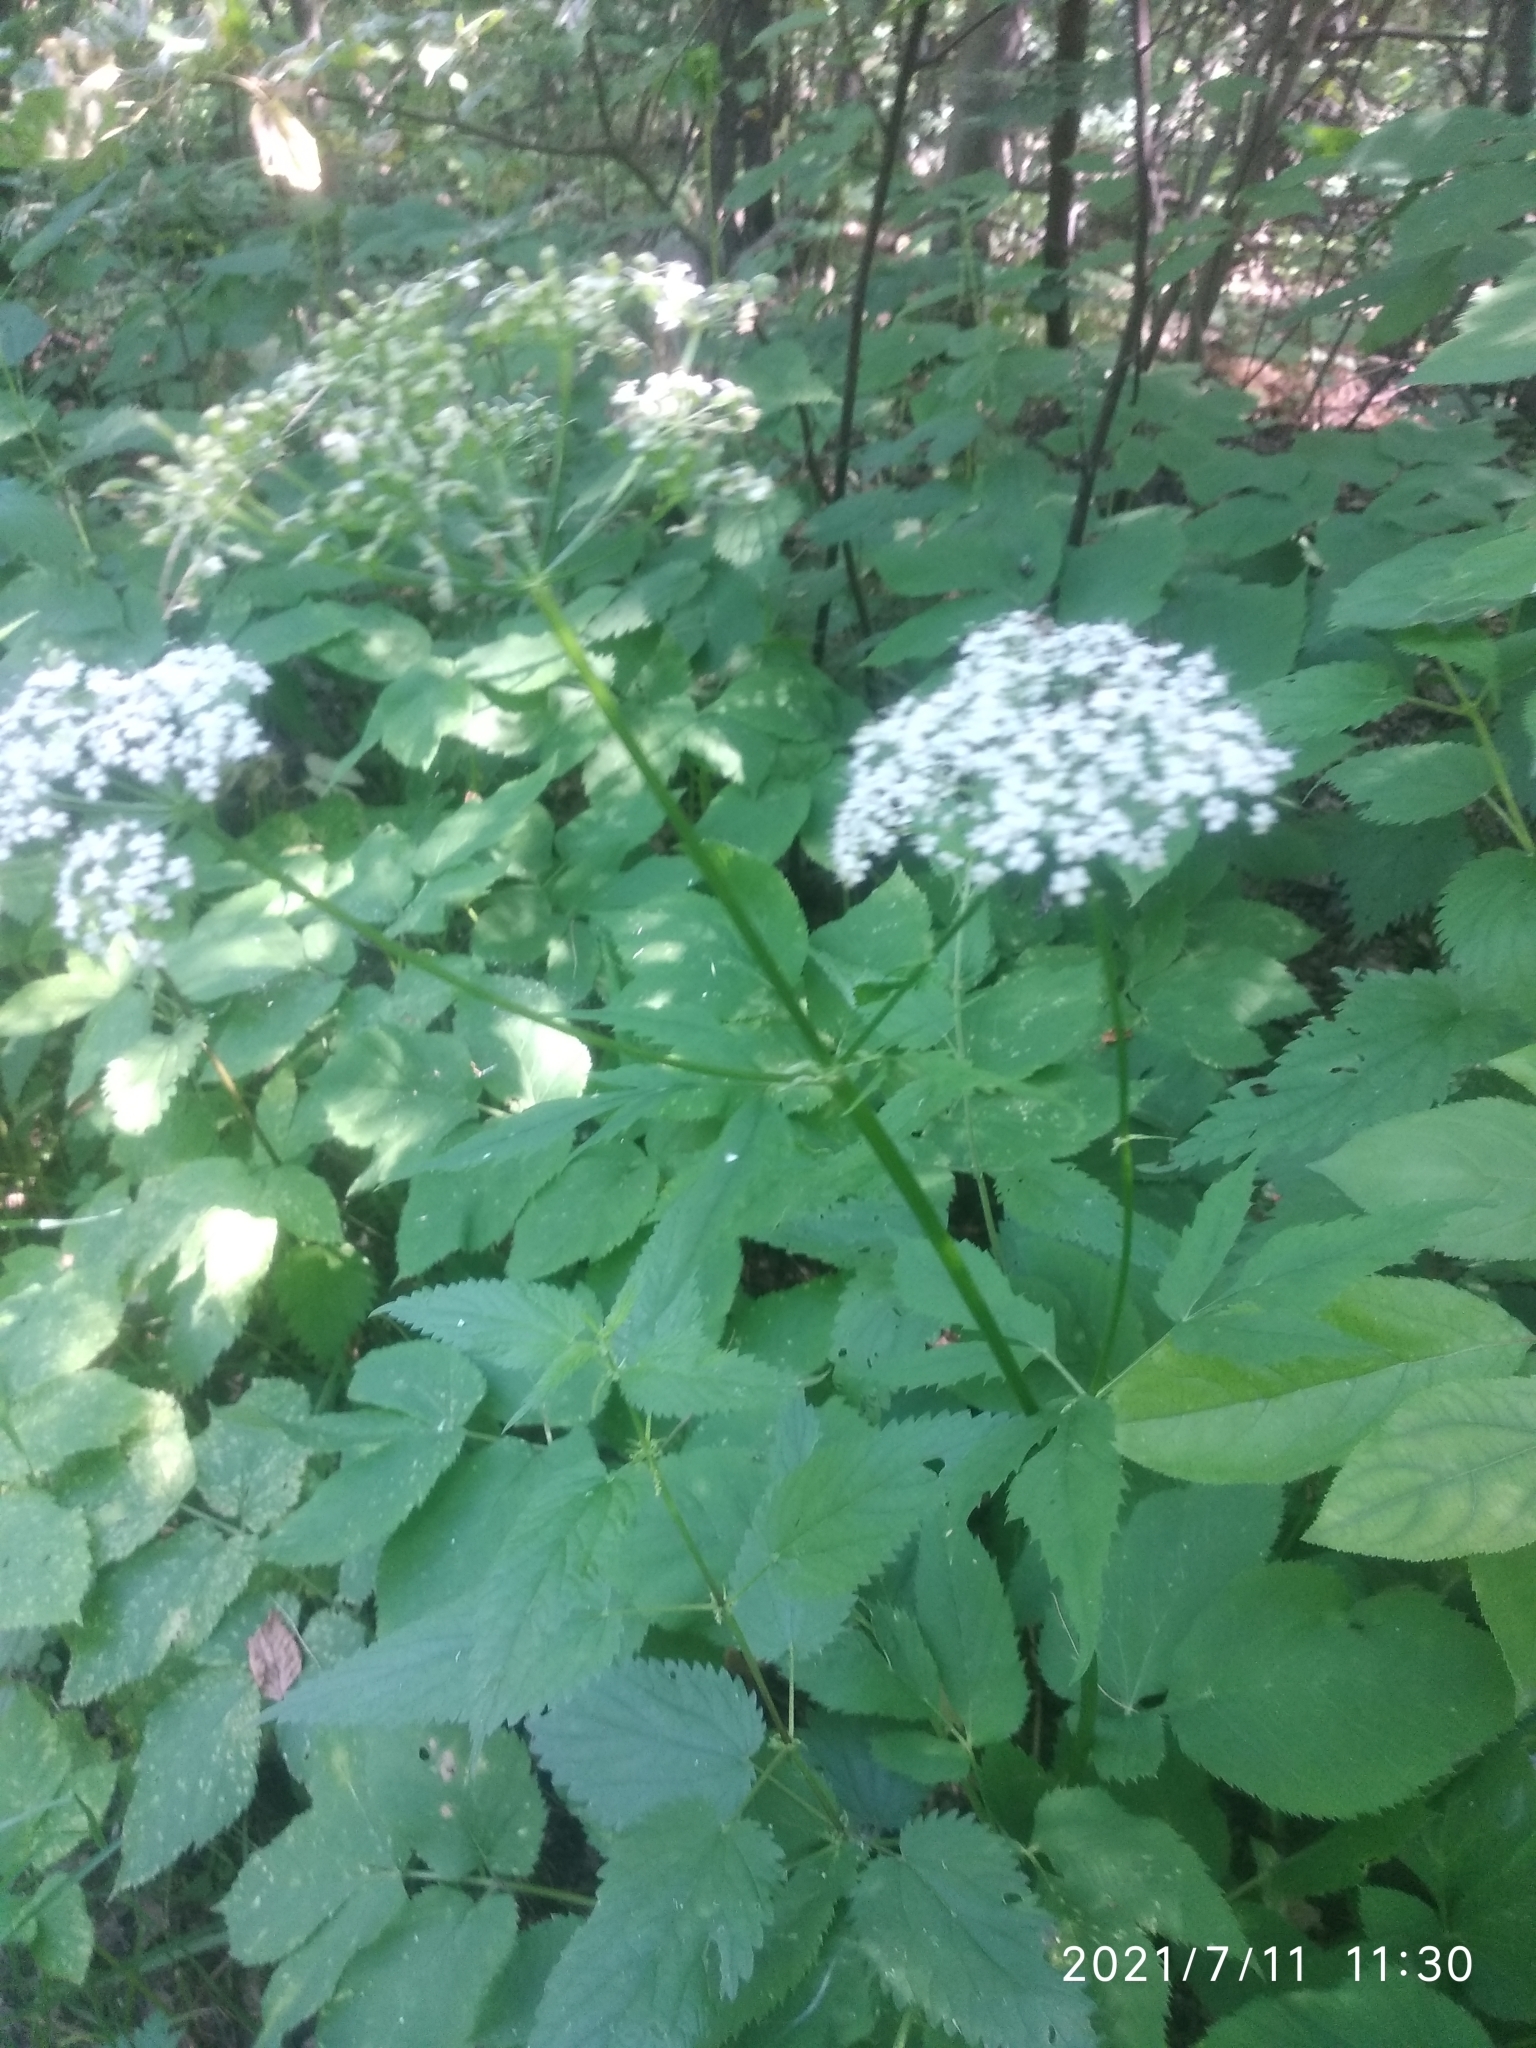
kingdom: Plantae
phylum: Tracheophyta
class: Magnoliopsida
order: Apiales
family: Apiaceae
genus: Aegopodium
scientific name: Aegopodium podagraria
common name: Ground-elder
